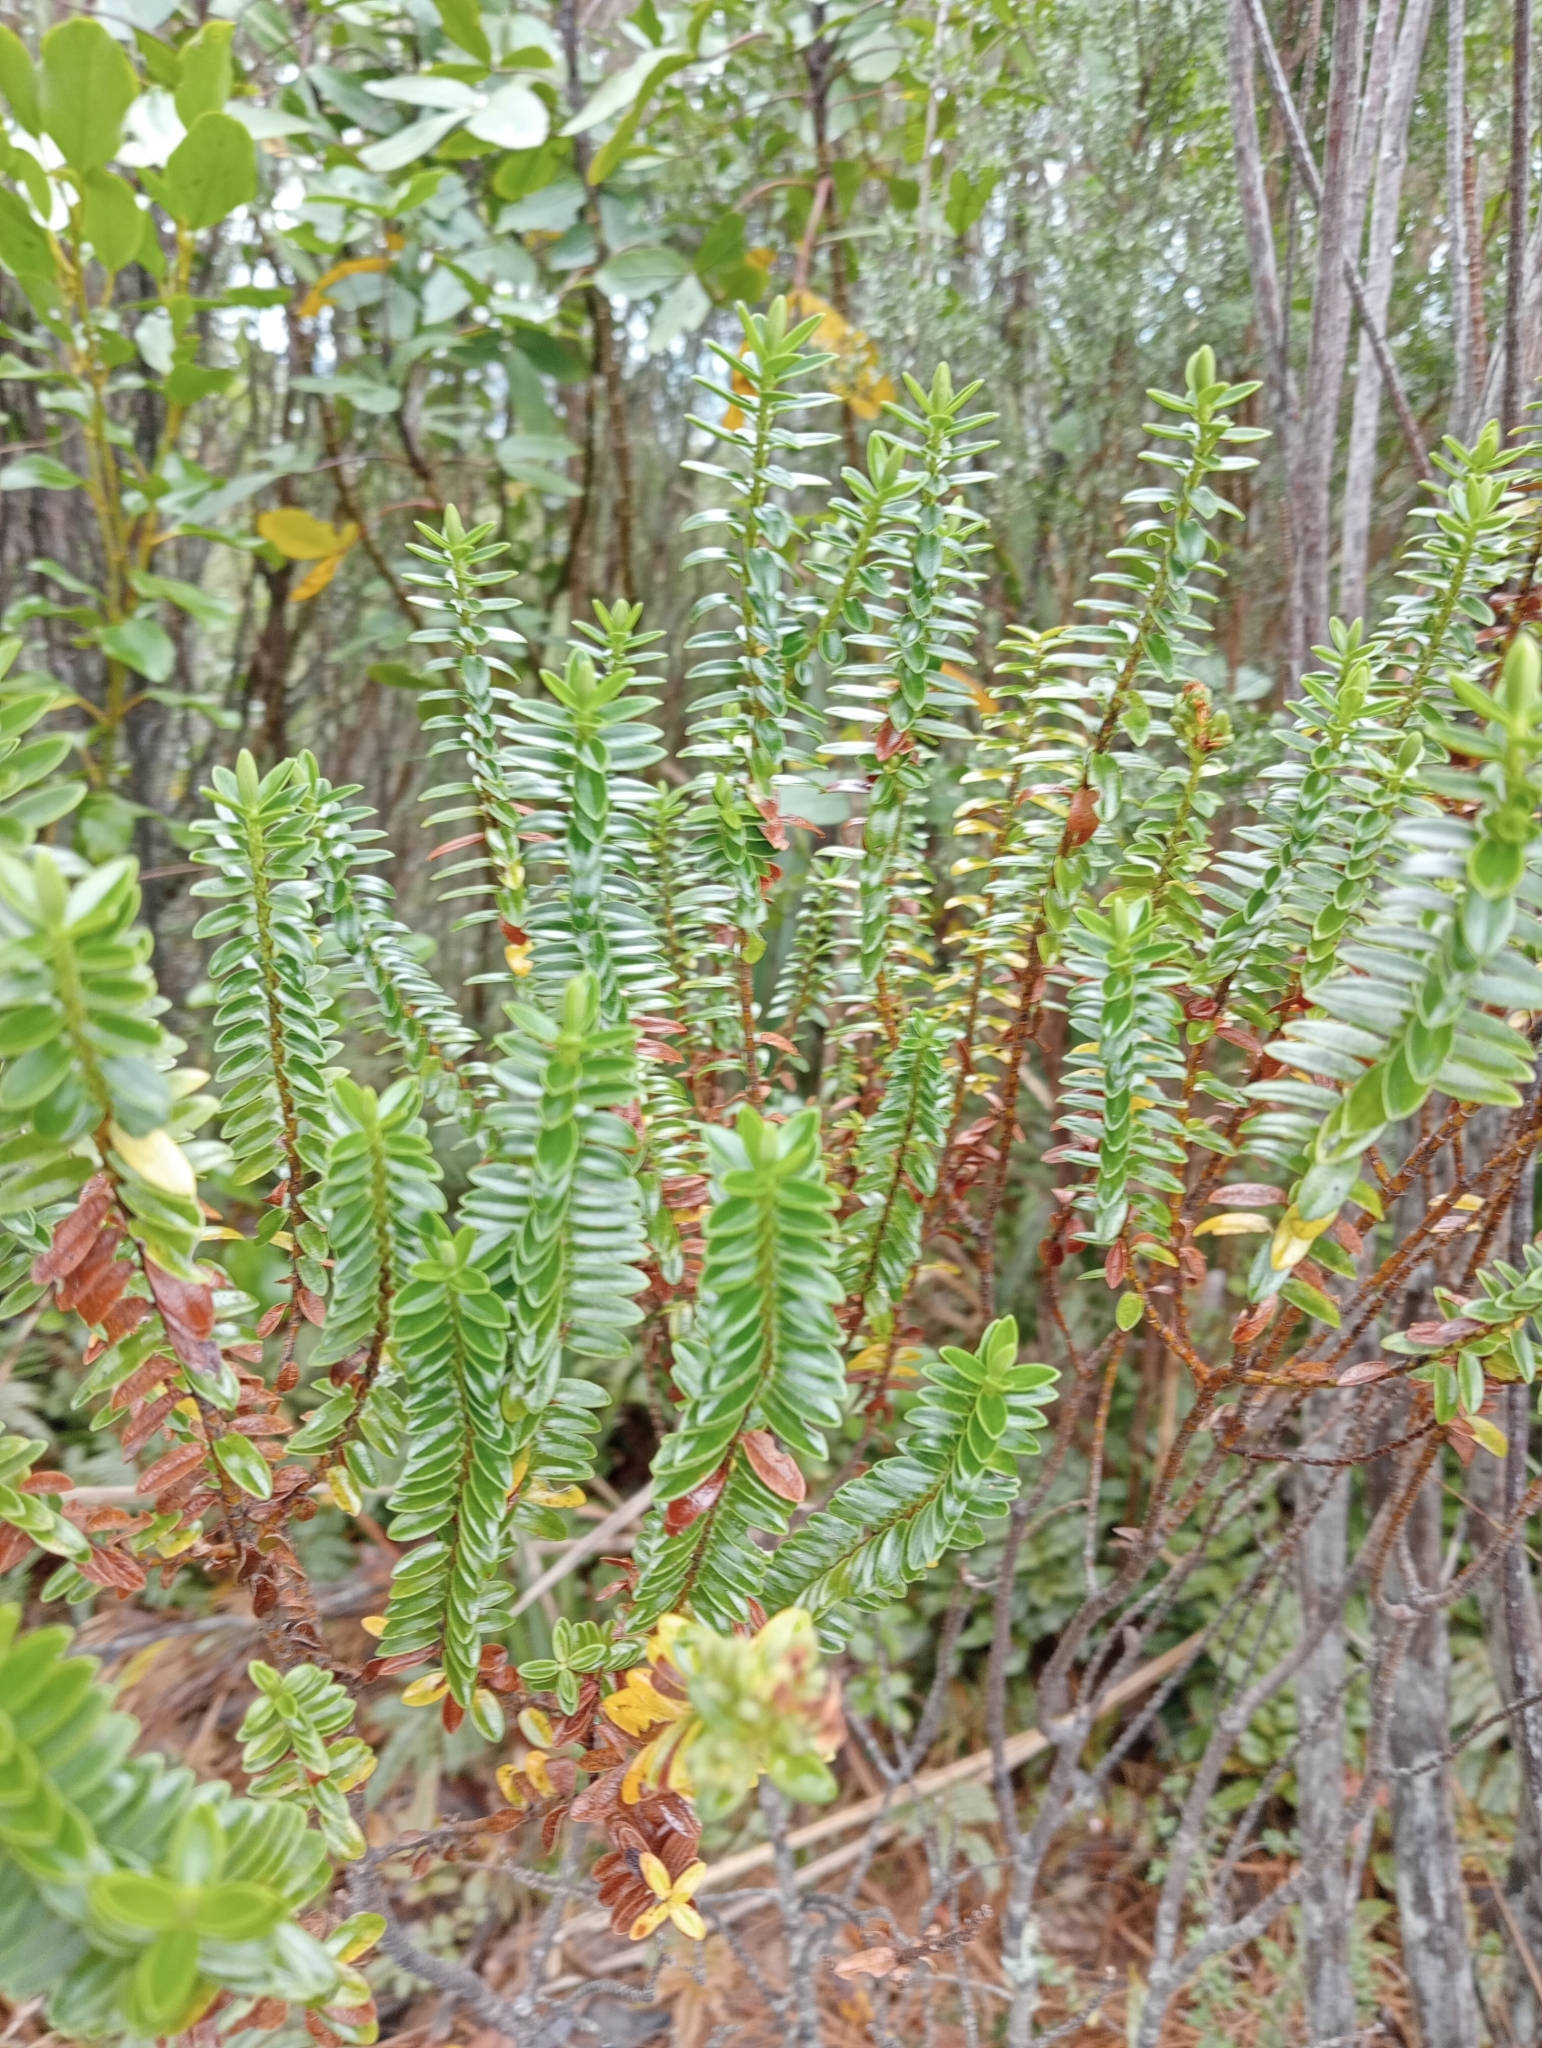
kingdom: Plantae
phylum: Tracheophyta
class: Magnoliopsida
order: Lamiales
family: Plantaginaceae
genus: Veronica
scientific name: Veronica odora
